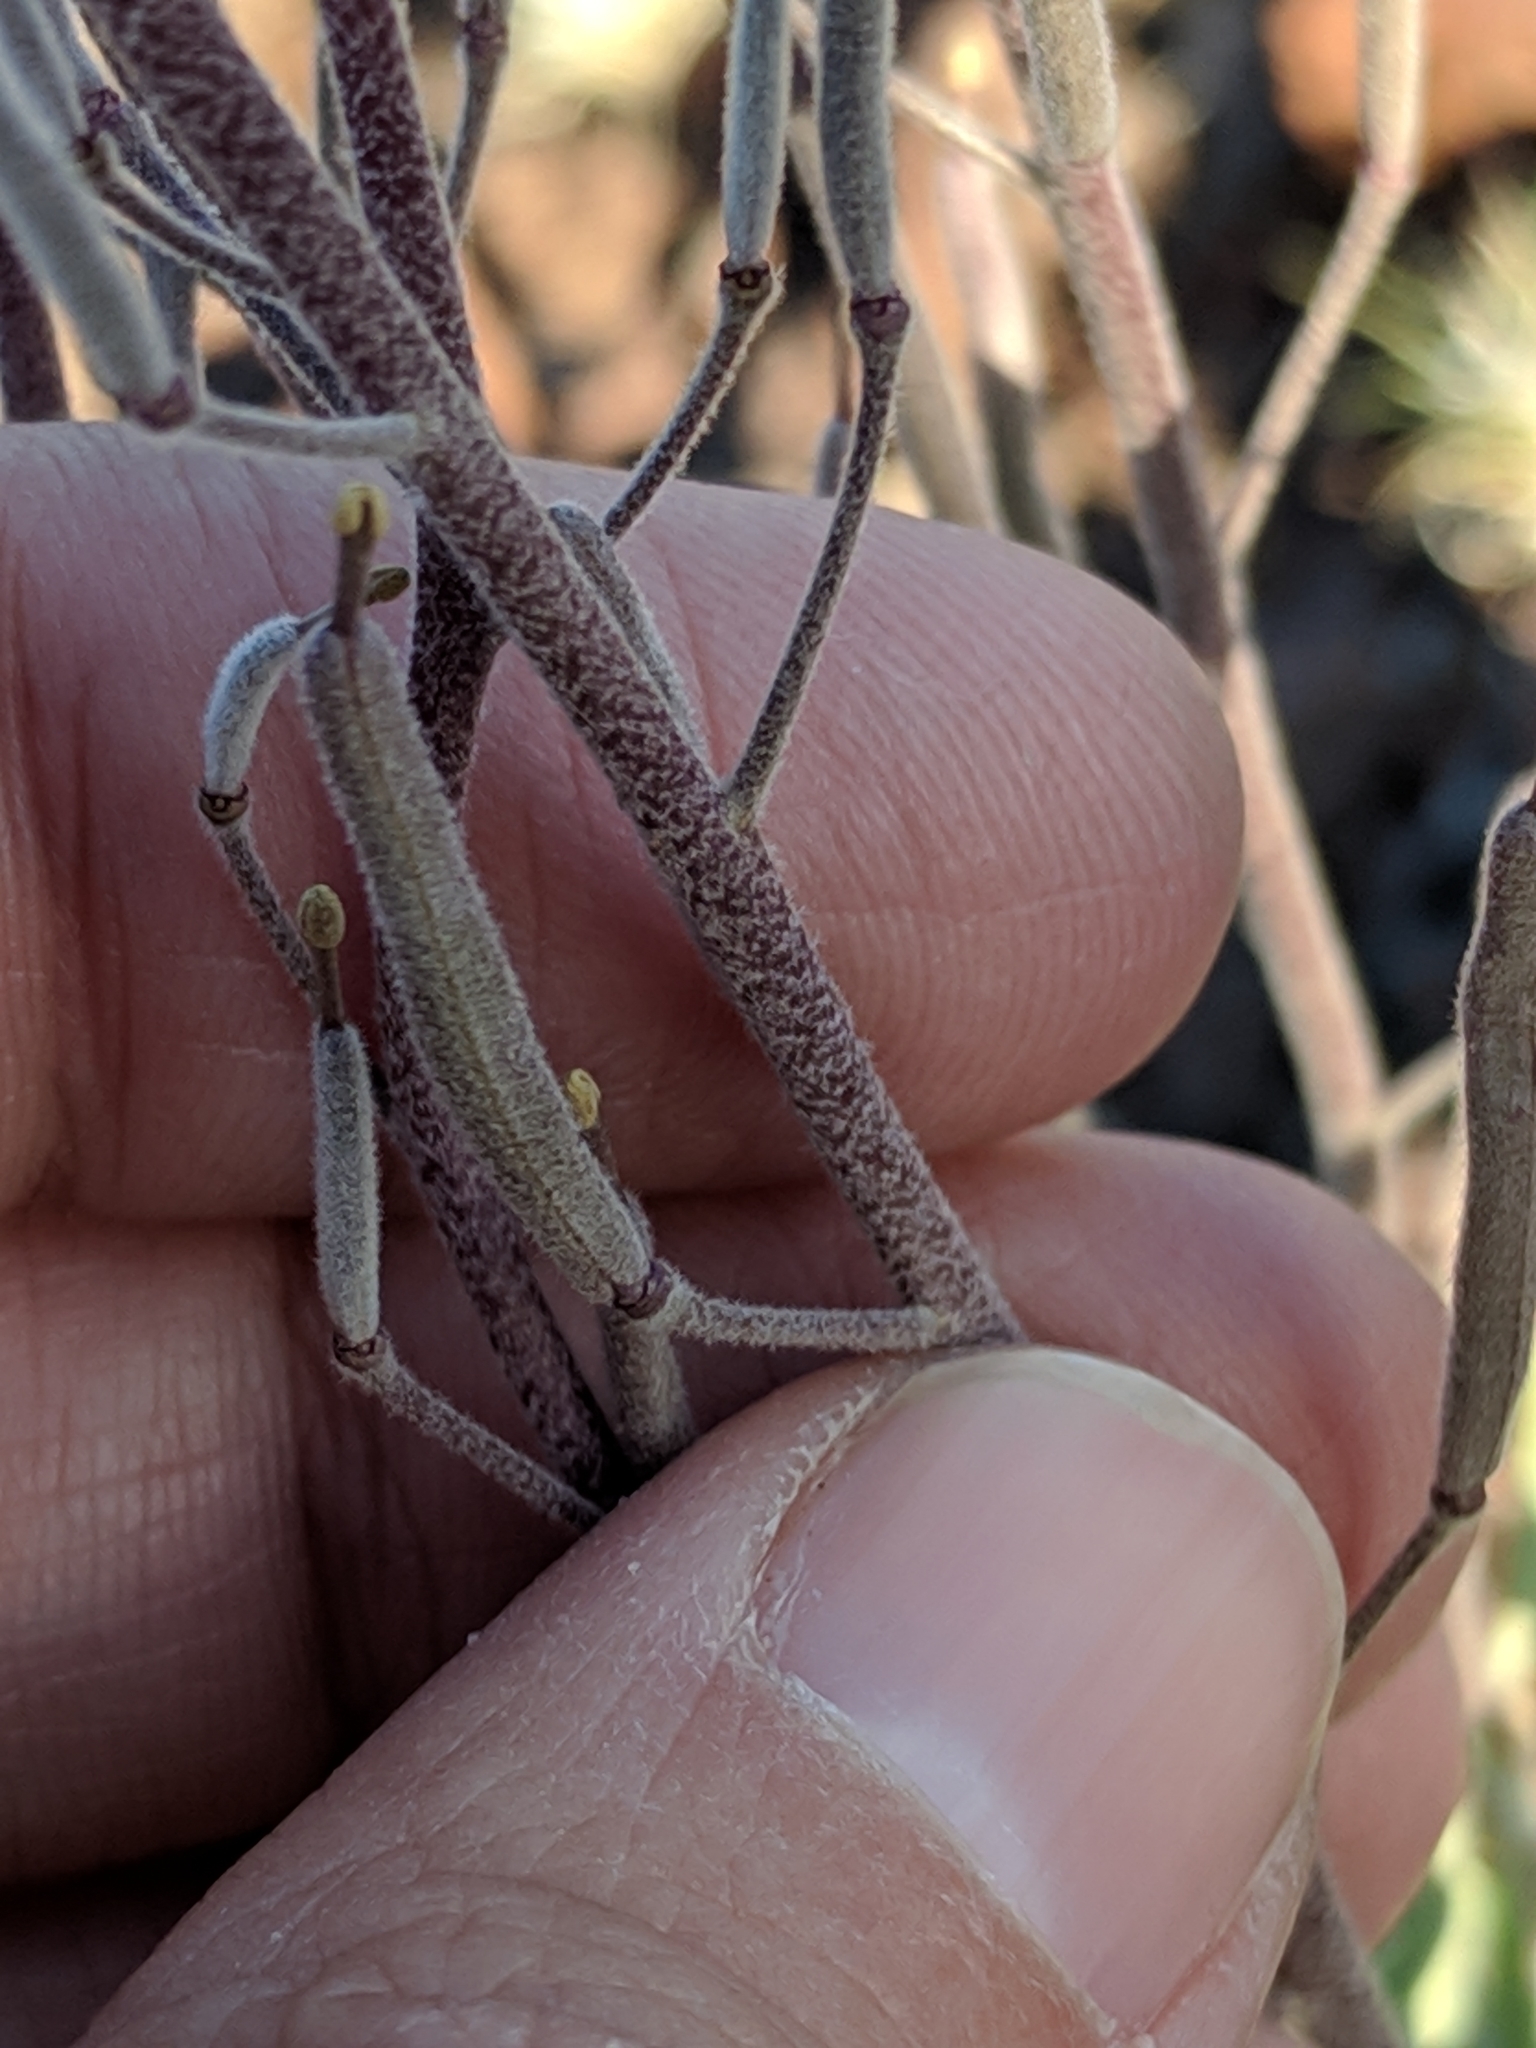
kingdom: Plantae
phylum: Tracheophyta
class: Magnoliopsida
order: Brassicales
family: Brassicaceae
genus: Nerisyrenia
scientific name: Nerisyrenia camporum
